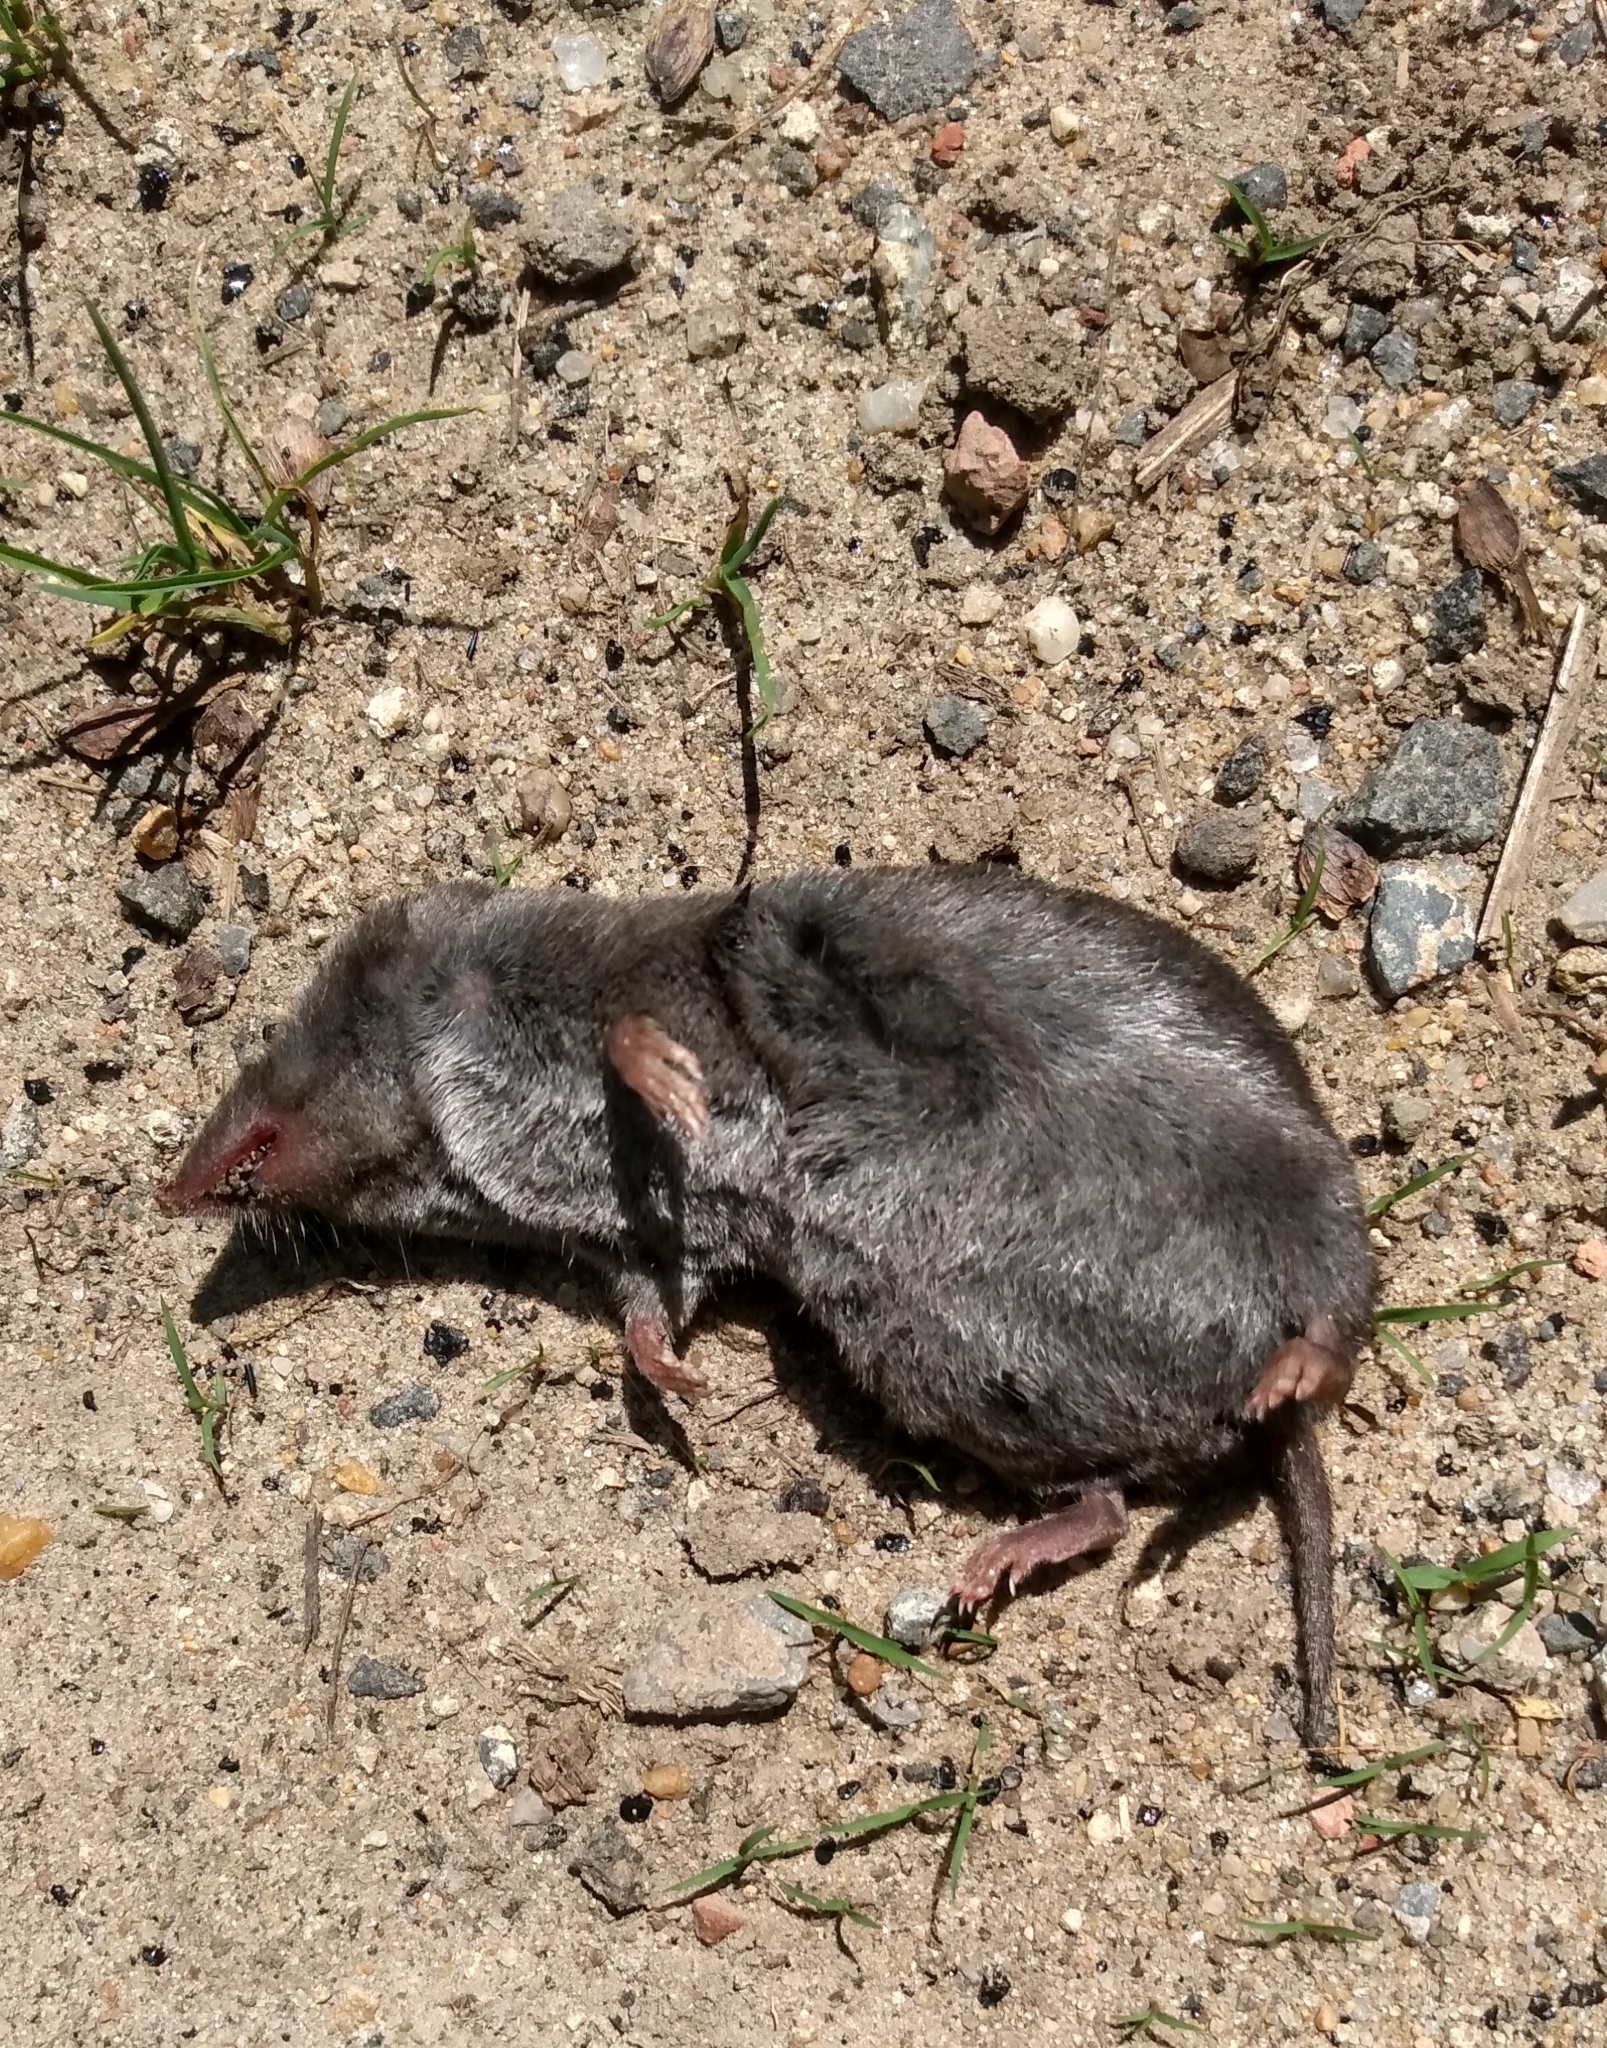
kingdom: Animalia
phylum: Chordata
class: Mammalia
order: Soricomorpha
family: Soricidae
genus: Blarina
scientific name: Blarina brevicauda
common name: Northern short-tailed shrew
